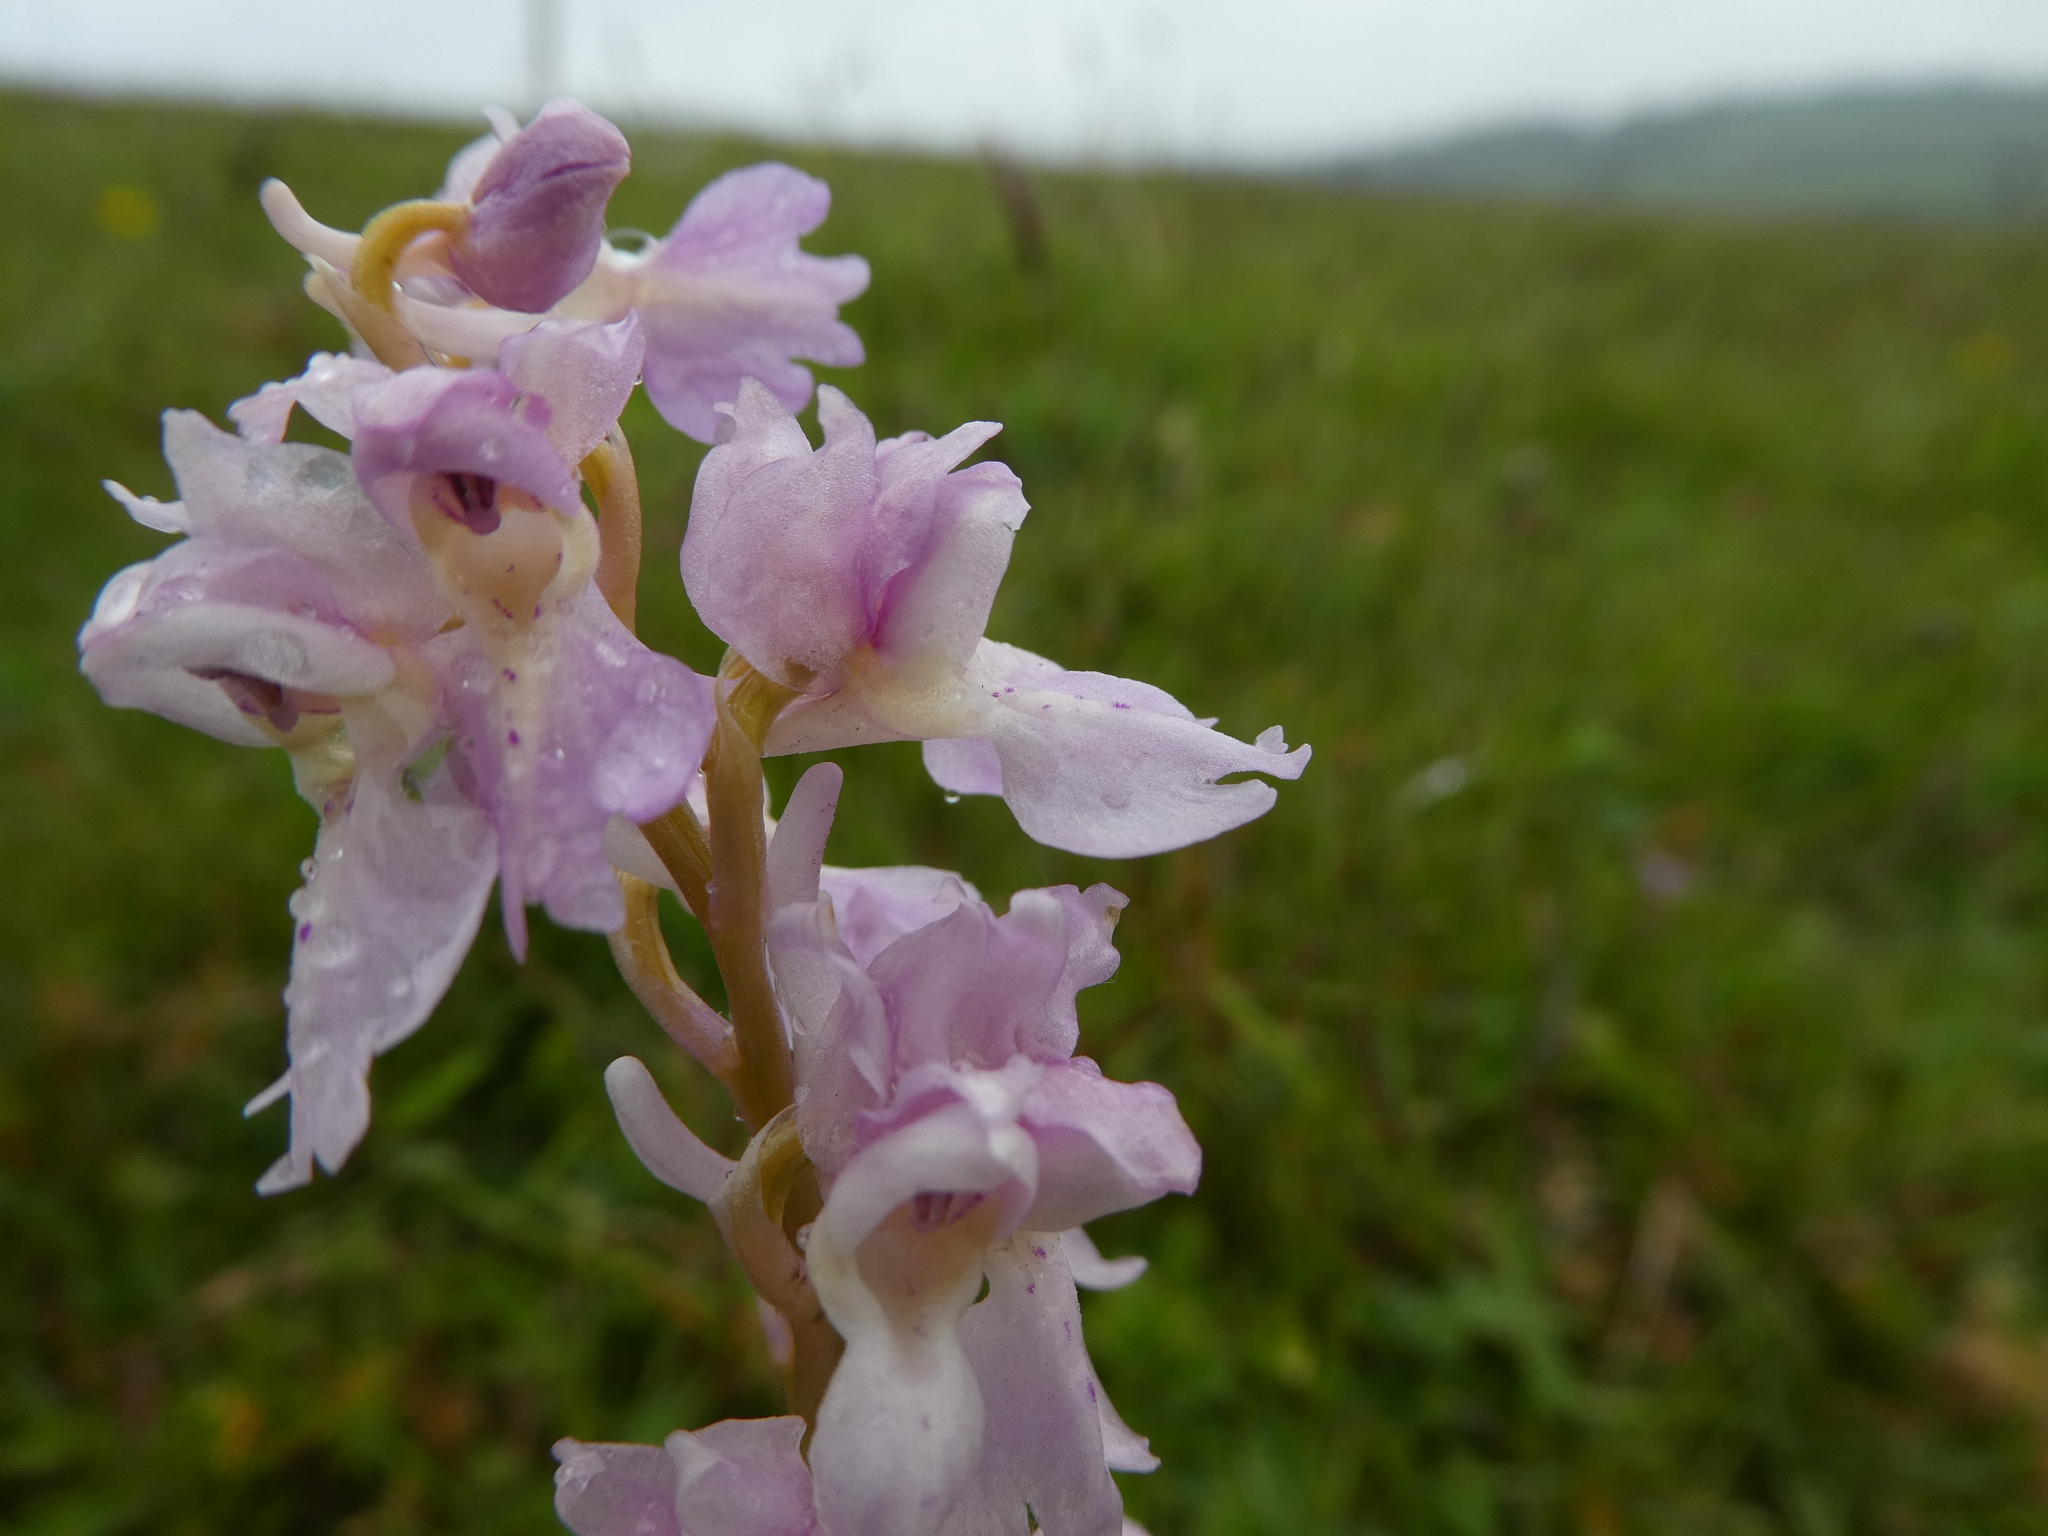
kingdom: Plantae
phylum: Tracheophyta
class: Liliopsida
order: Asparagales
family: Orchidaceae
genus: Orchis
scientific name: Orchis mascula
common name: Early-purple orchid
